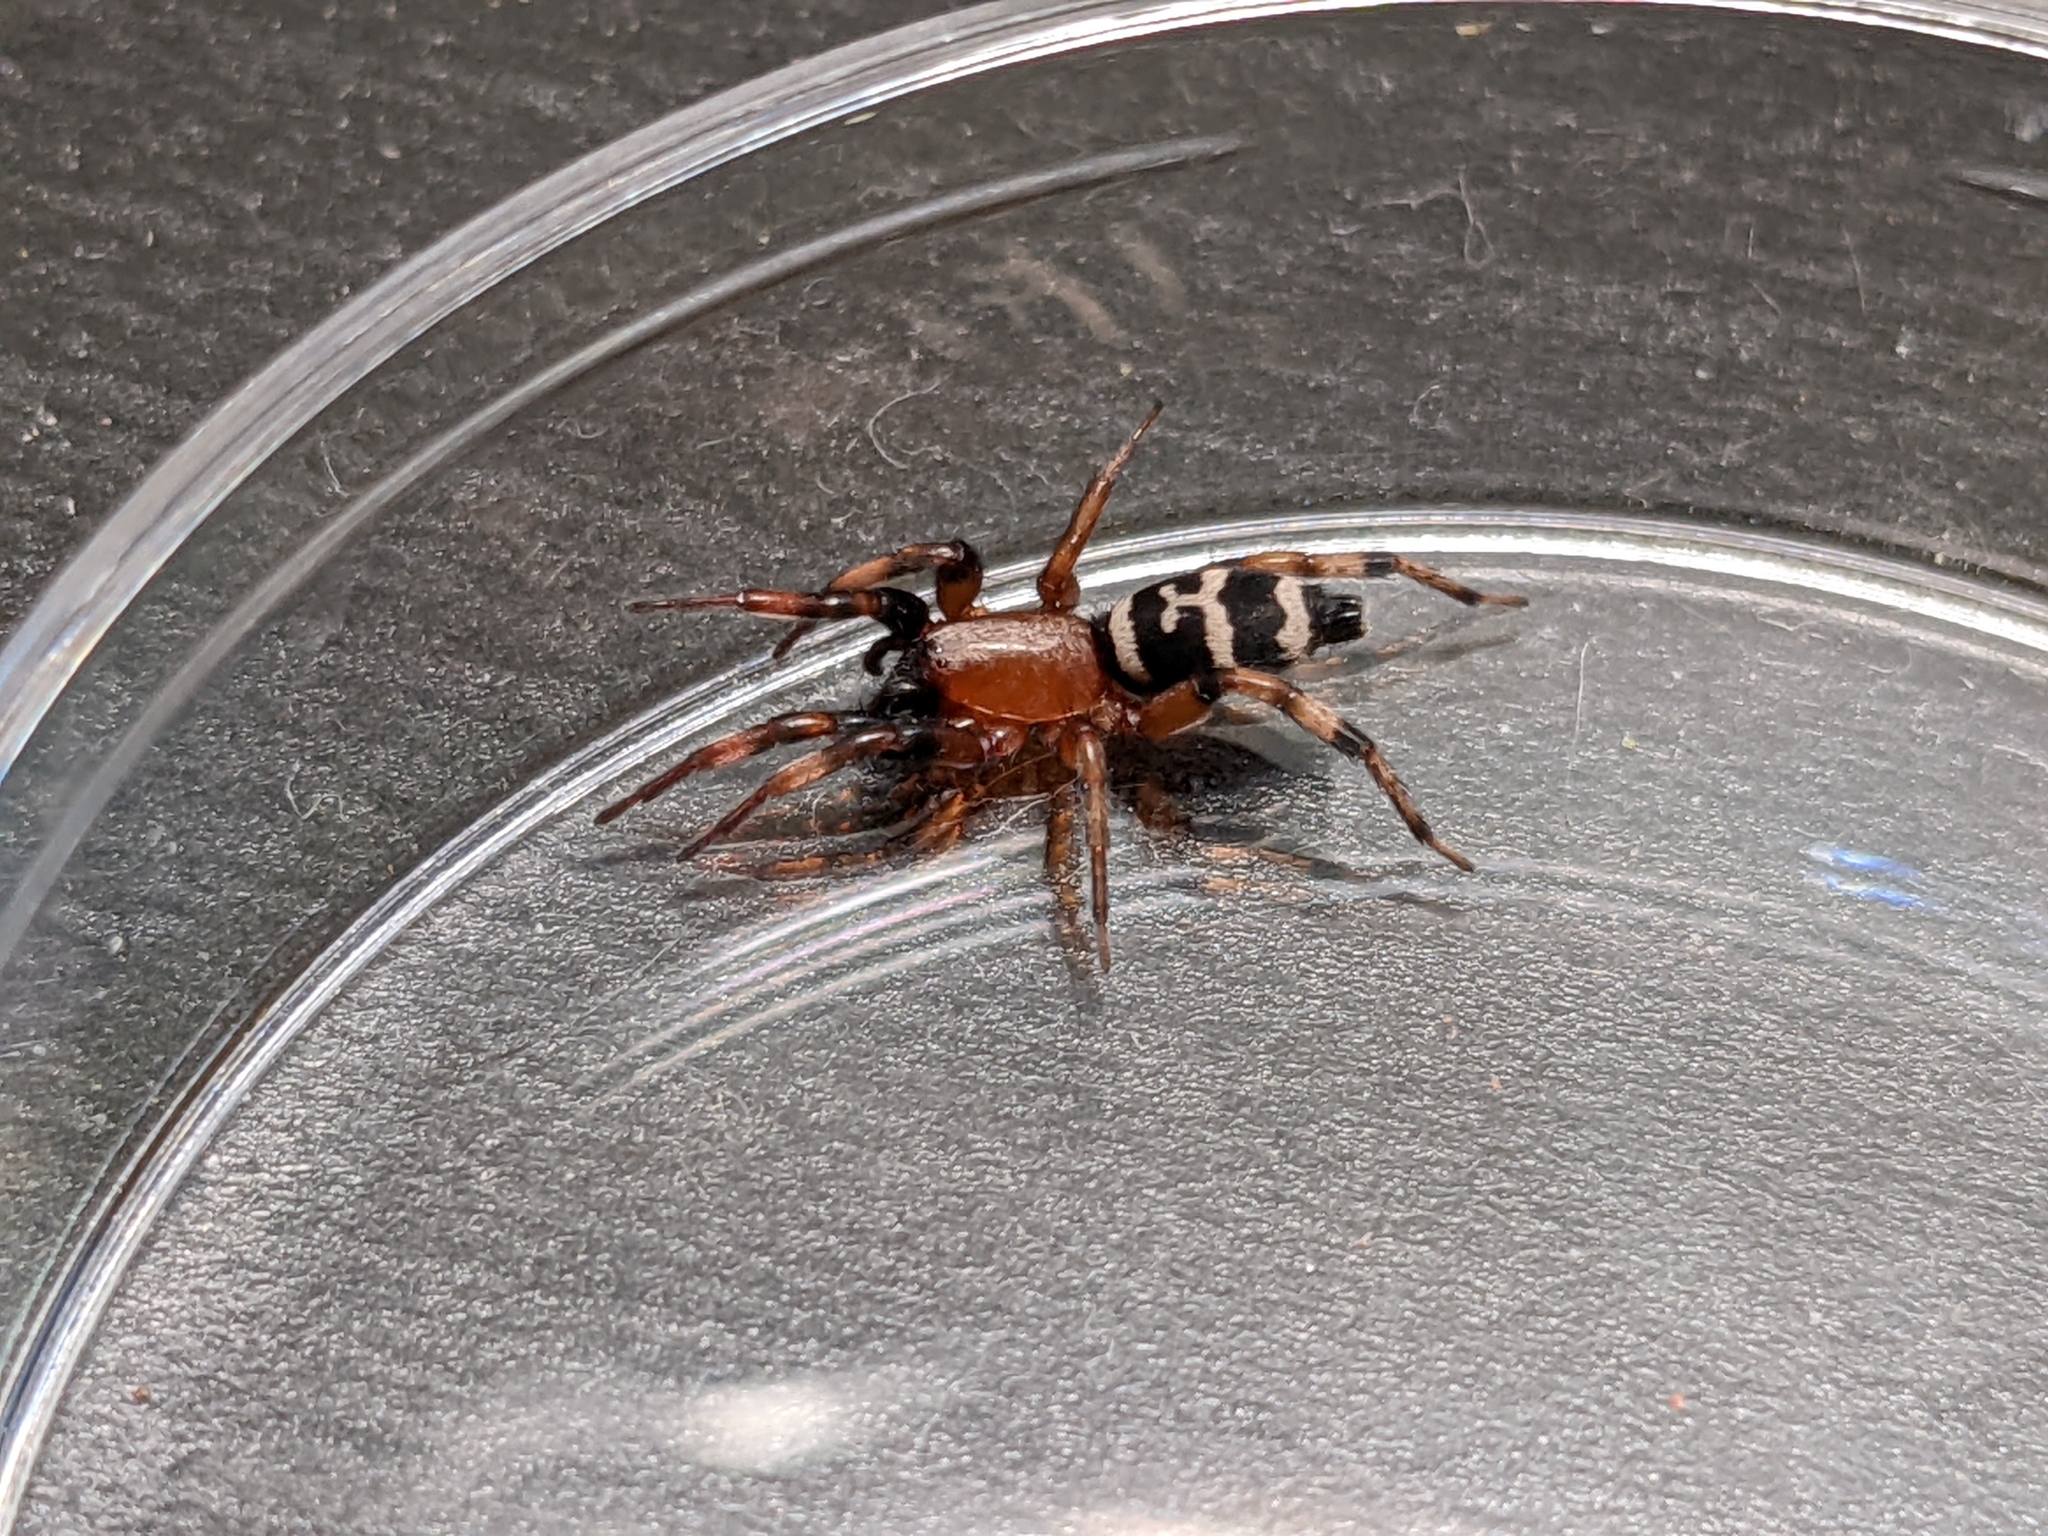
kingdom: Animalia
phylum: Arthropoda
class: Arachnida
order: Araneae
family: Gnaphosidae
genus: Sergiolus
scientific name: Sergiolus capulatus
